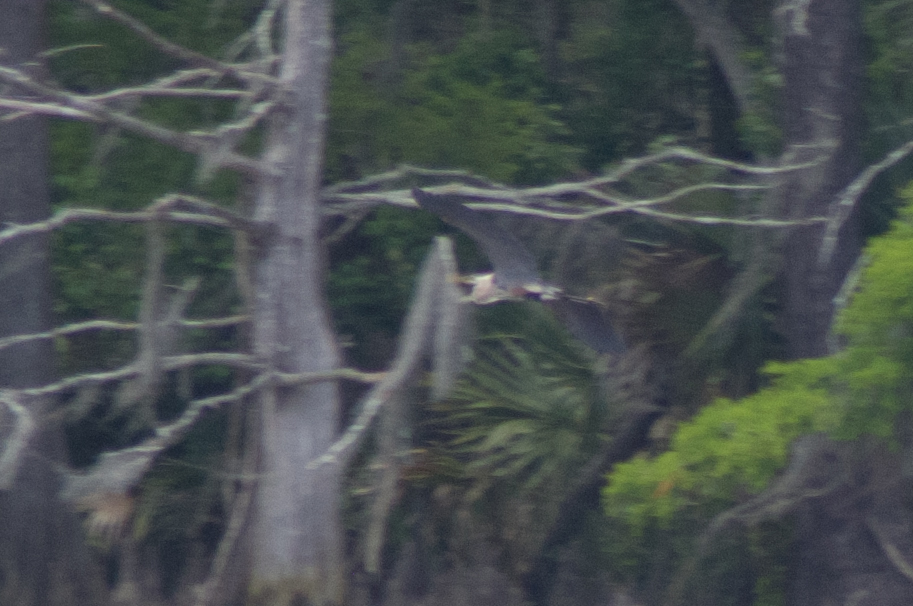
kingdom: Animalia
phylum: Chordata
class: Aves
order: Pelecaniformes
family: Ardeidae
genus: Ardea
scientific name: Ardea herodias
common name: Great blue heron
